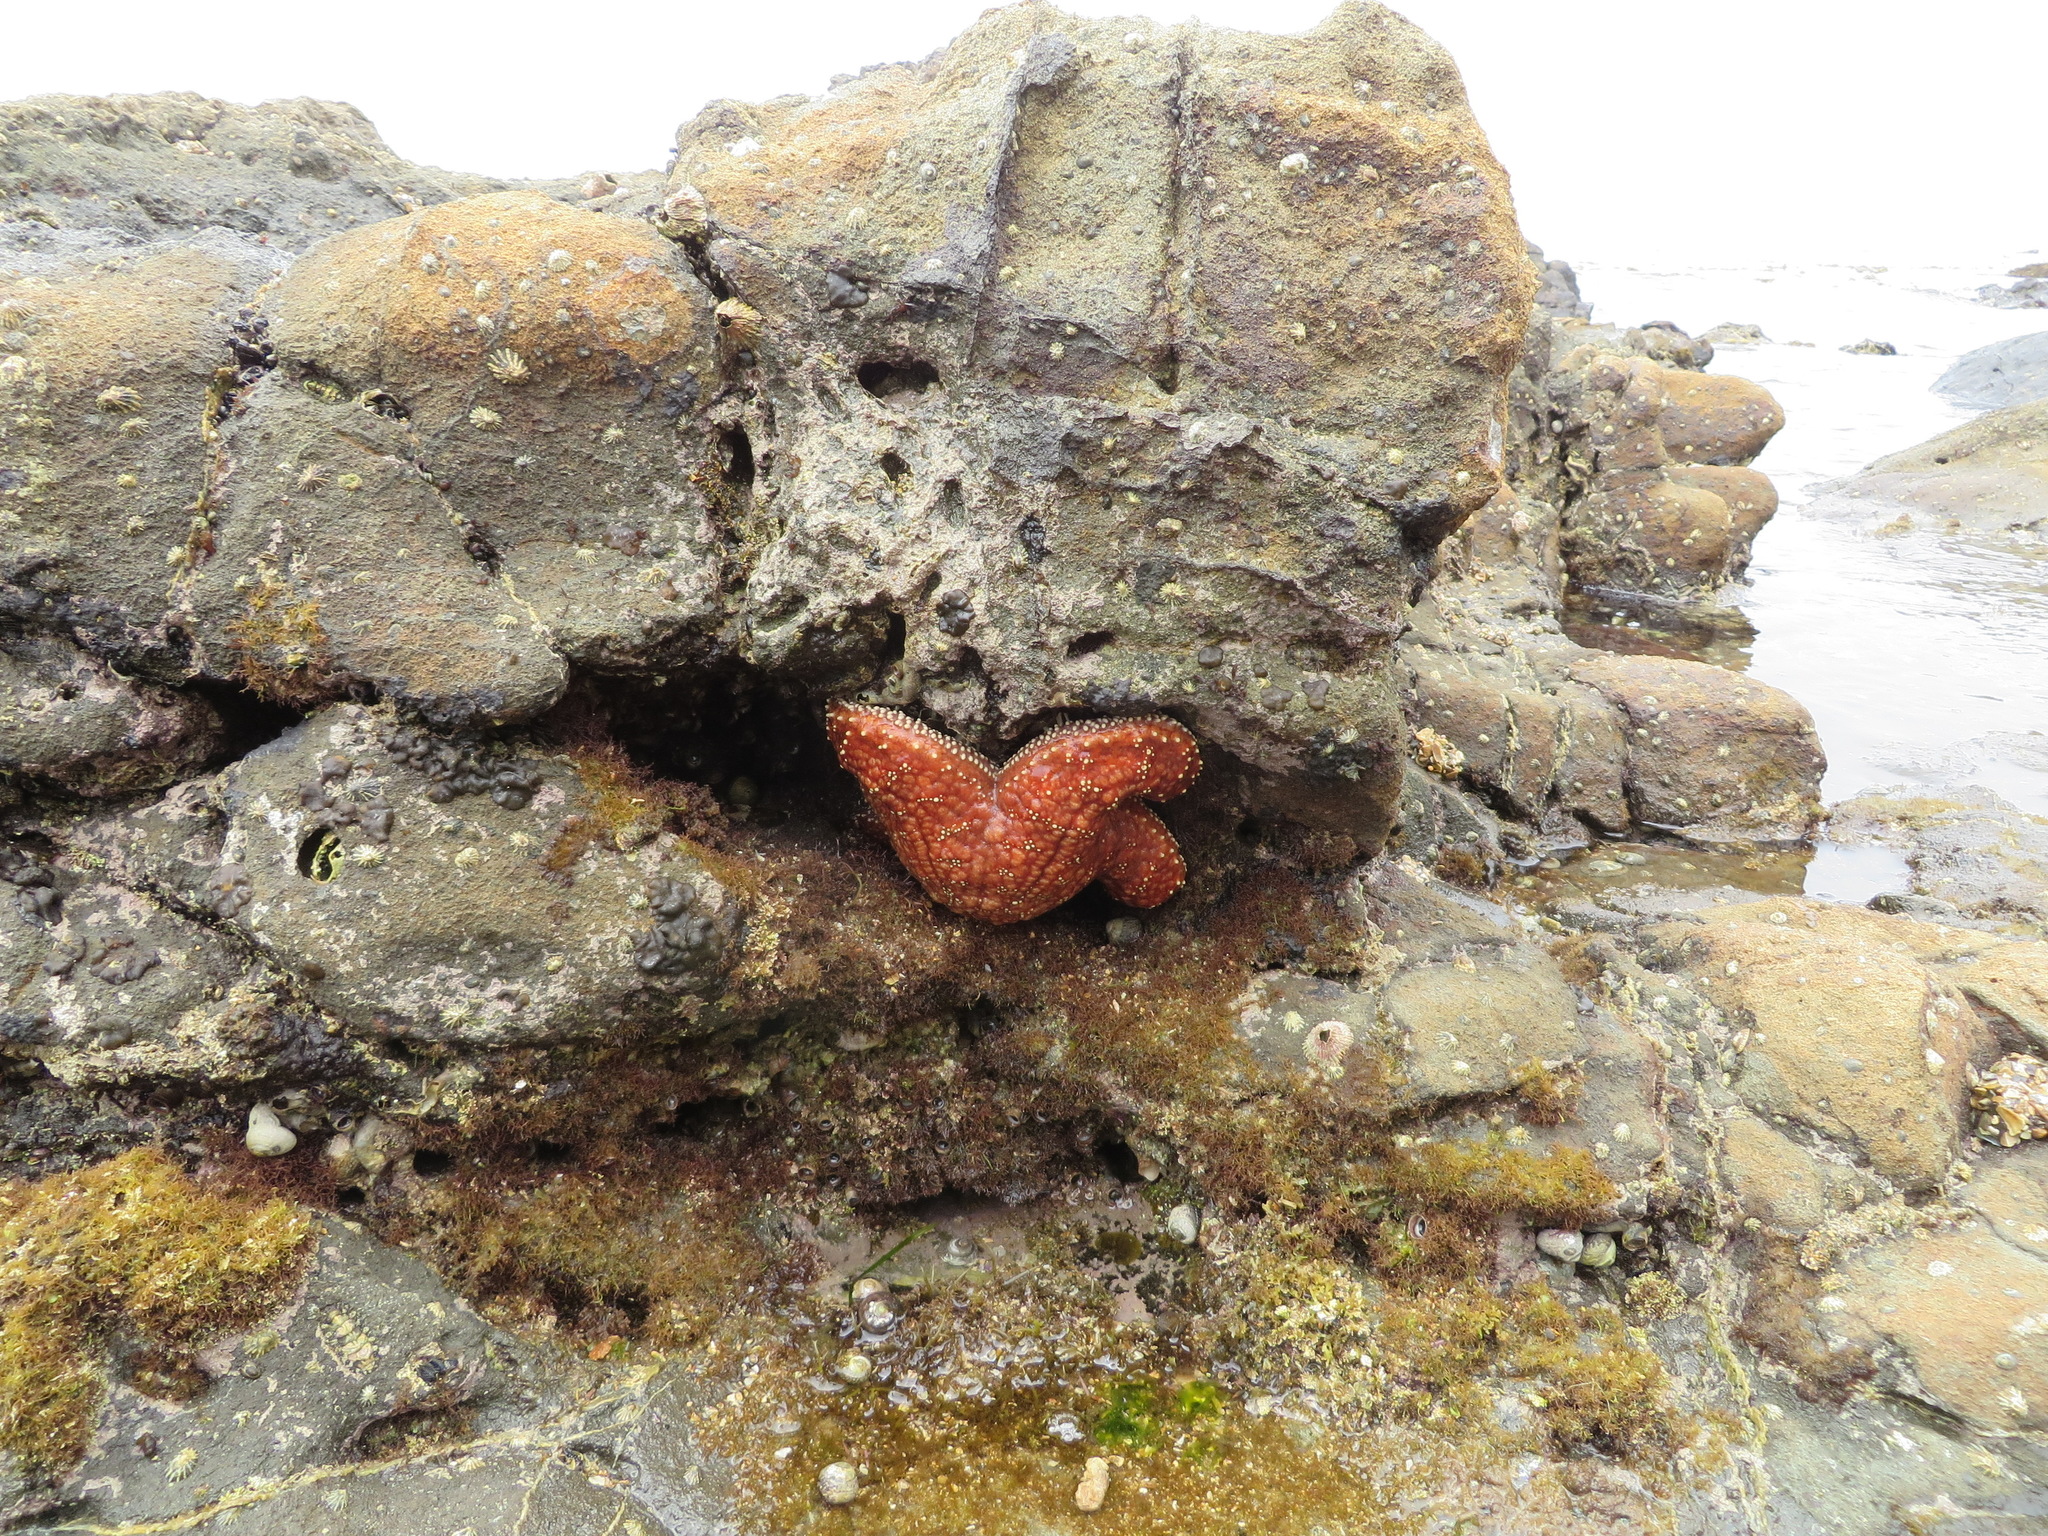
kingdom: Animalia
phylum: Echinodermata
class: Asteroidea
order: Forcipulatida
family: Asteriidae
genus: Pisaster
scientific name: Pisaster ochraceus
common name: Ochre stars
